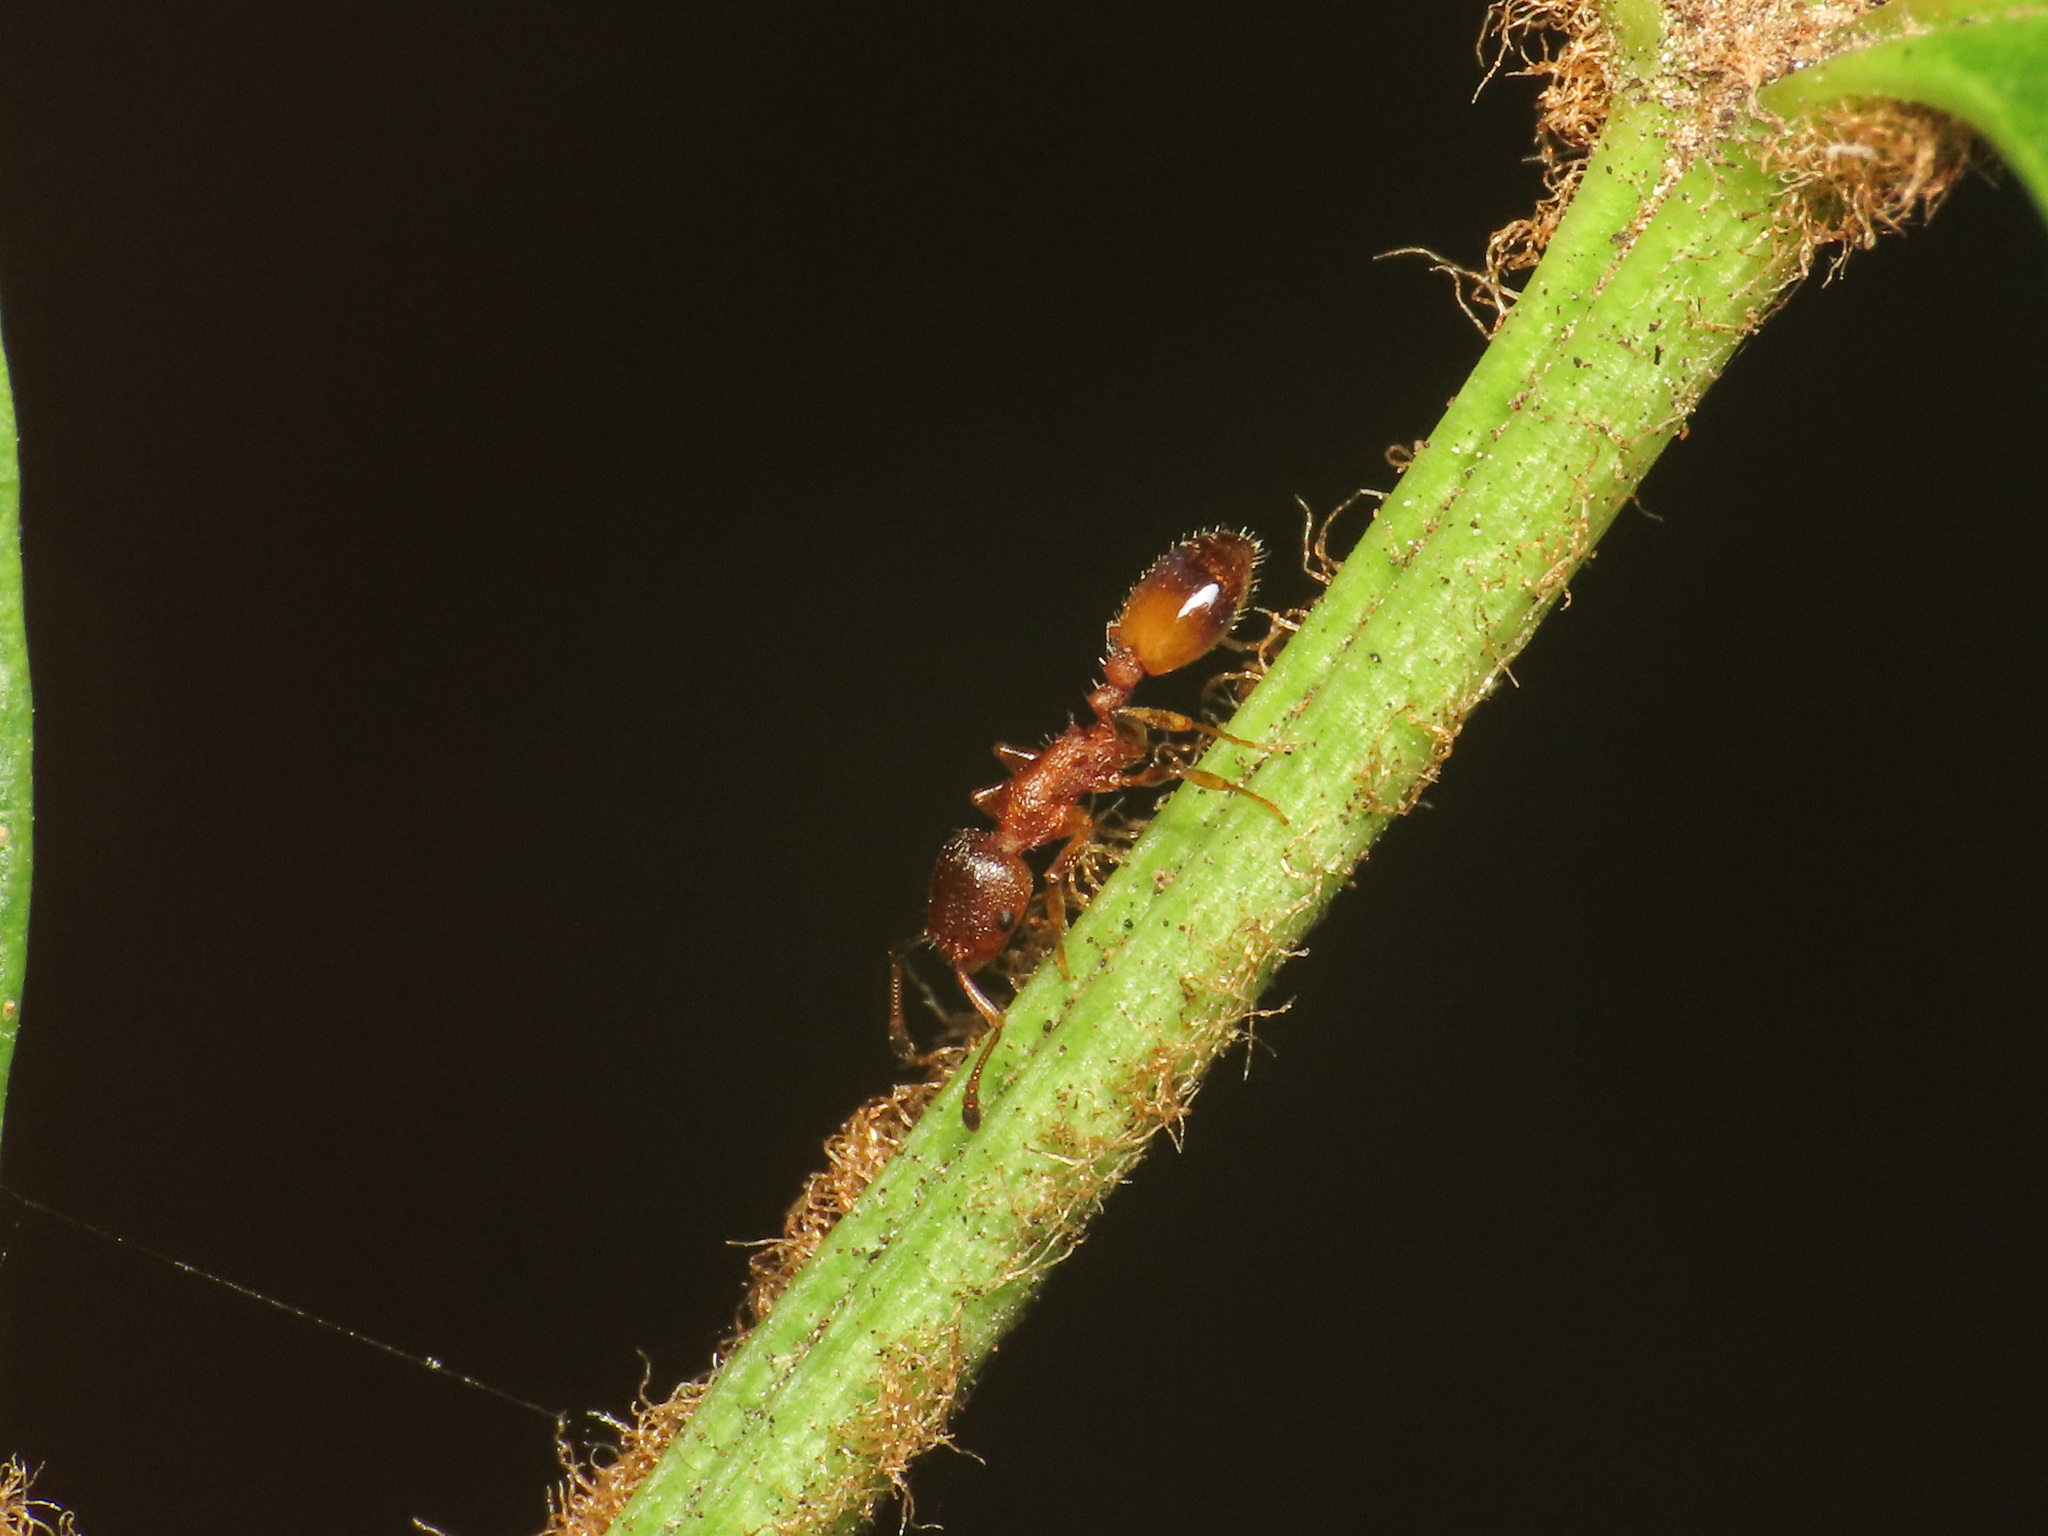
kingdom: Animalia
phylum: Arthropoda
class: Insecta
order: Hymenoptera
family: Formicidae
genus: Temnothorax
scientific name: Temnothorax
